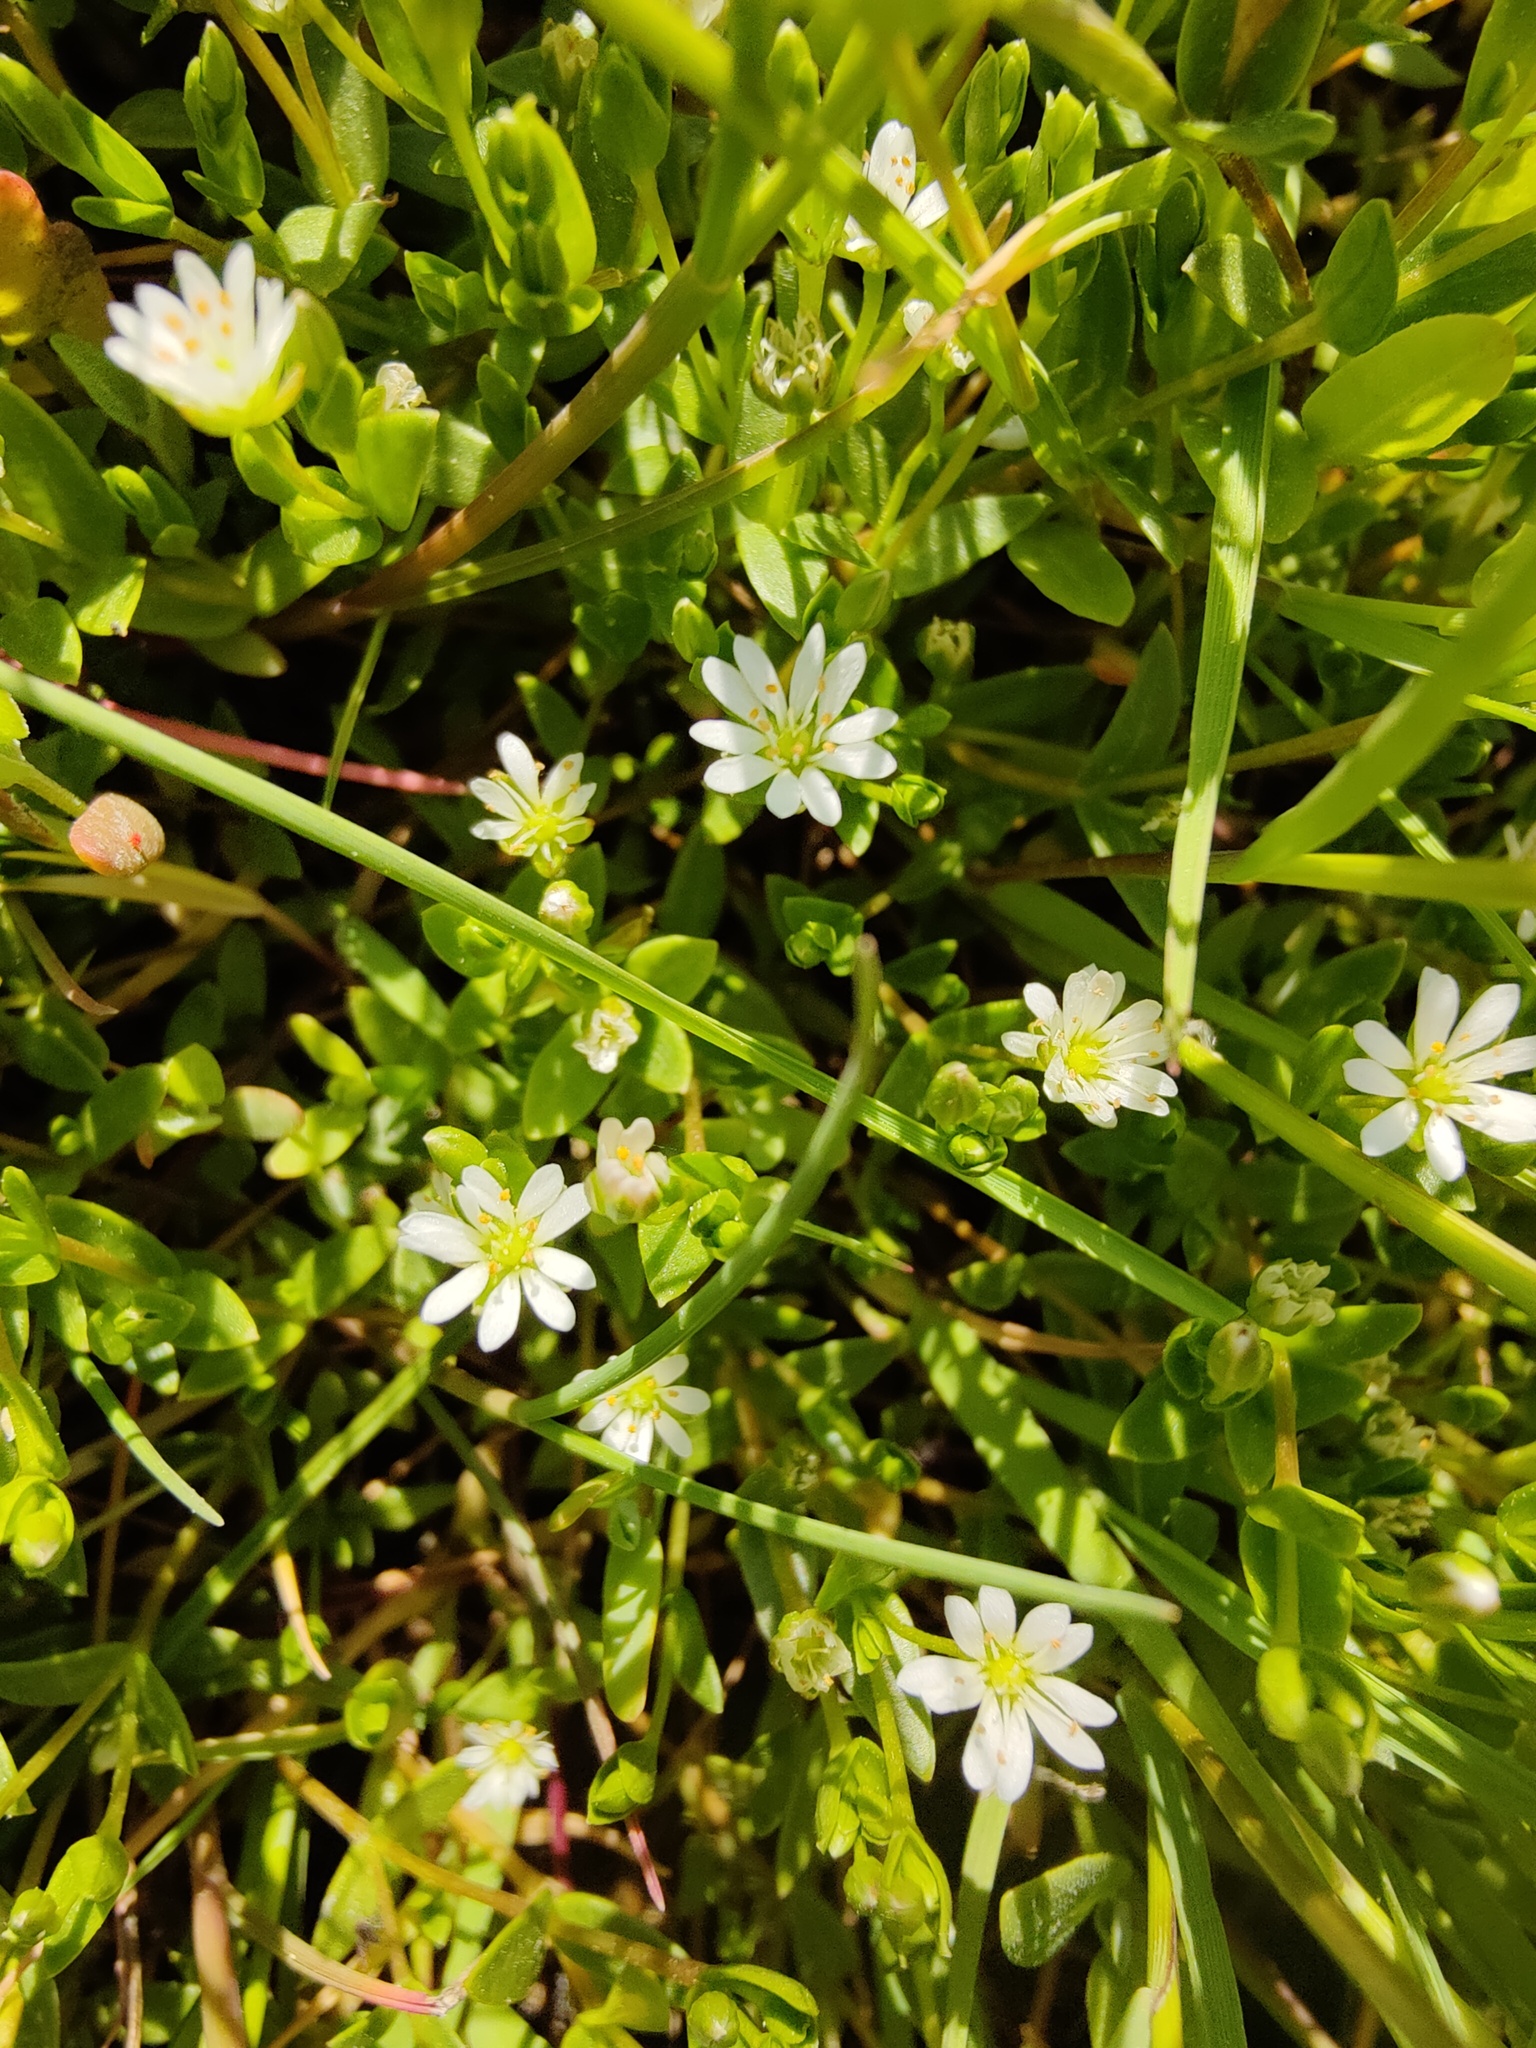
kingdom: Plantae
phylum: Tracheophyta
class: Magnoliopsida
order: Caryophyllales
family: Caryophyllaceae
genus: Stellaria
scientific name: Stellaria humifusa
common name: Creeping starwort
